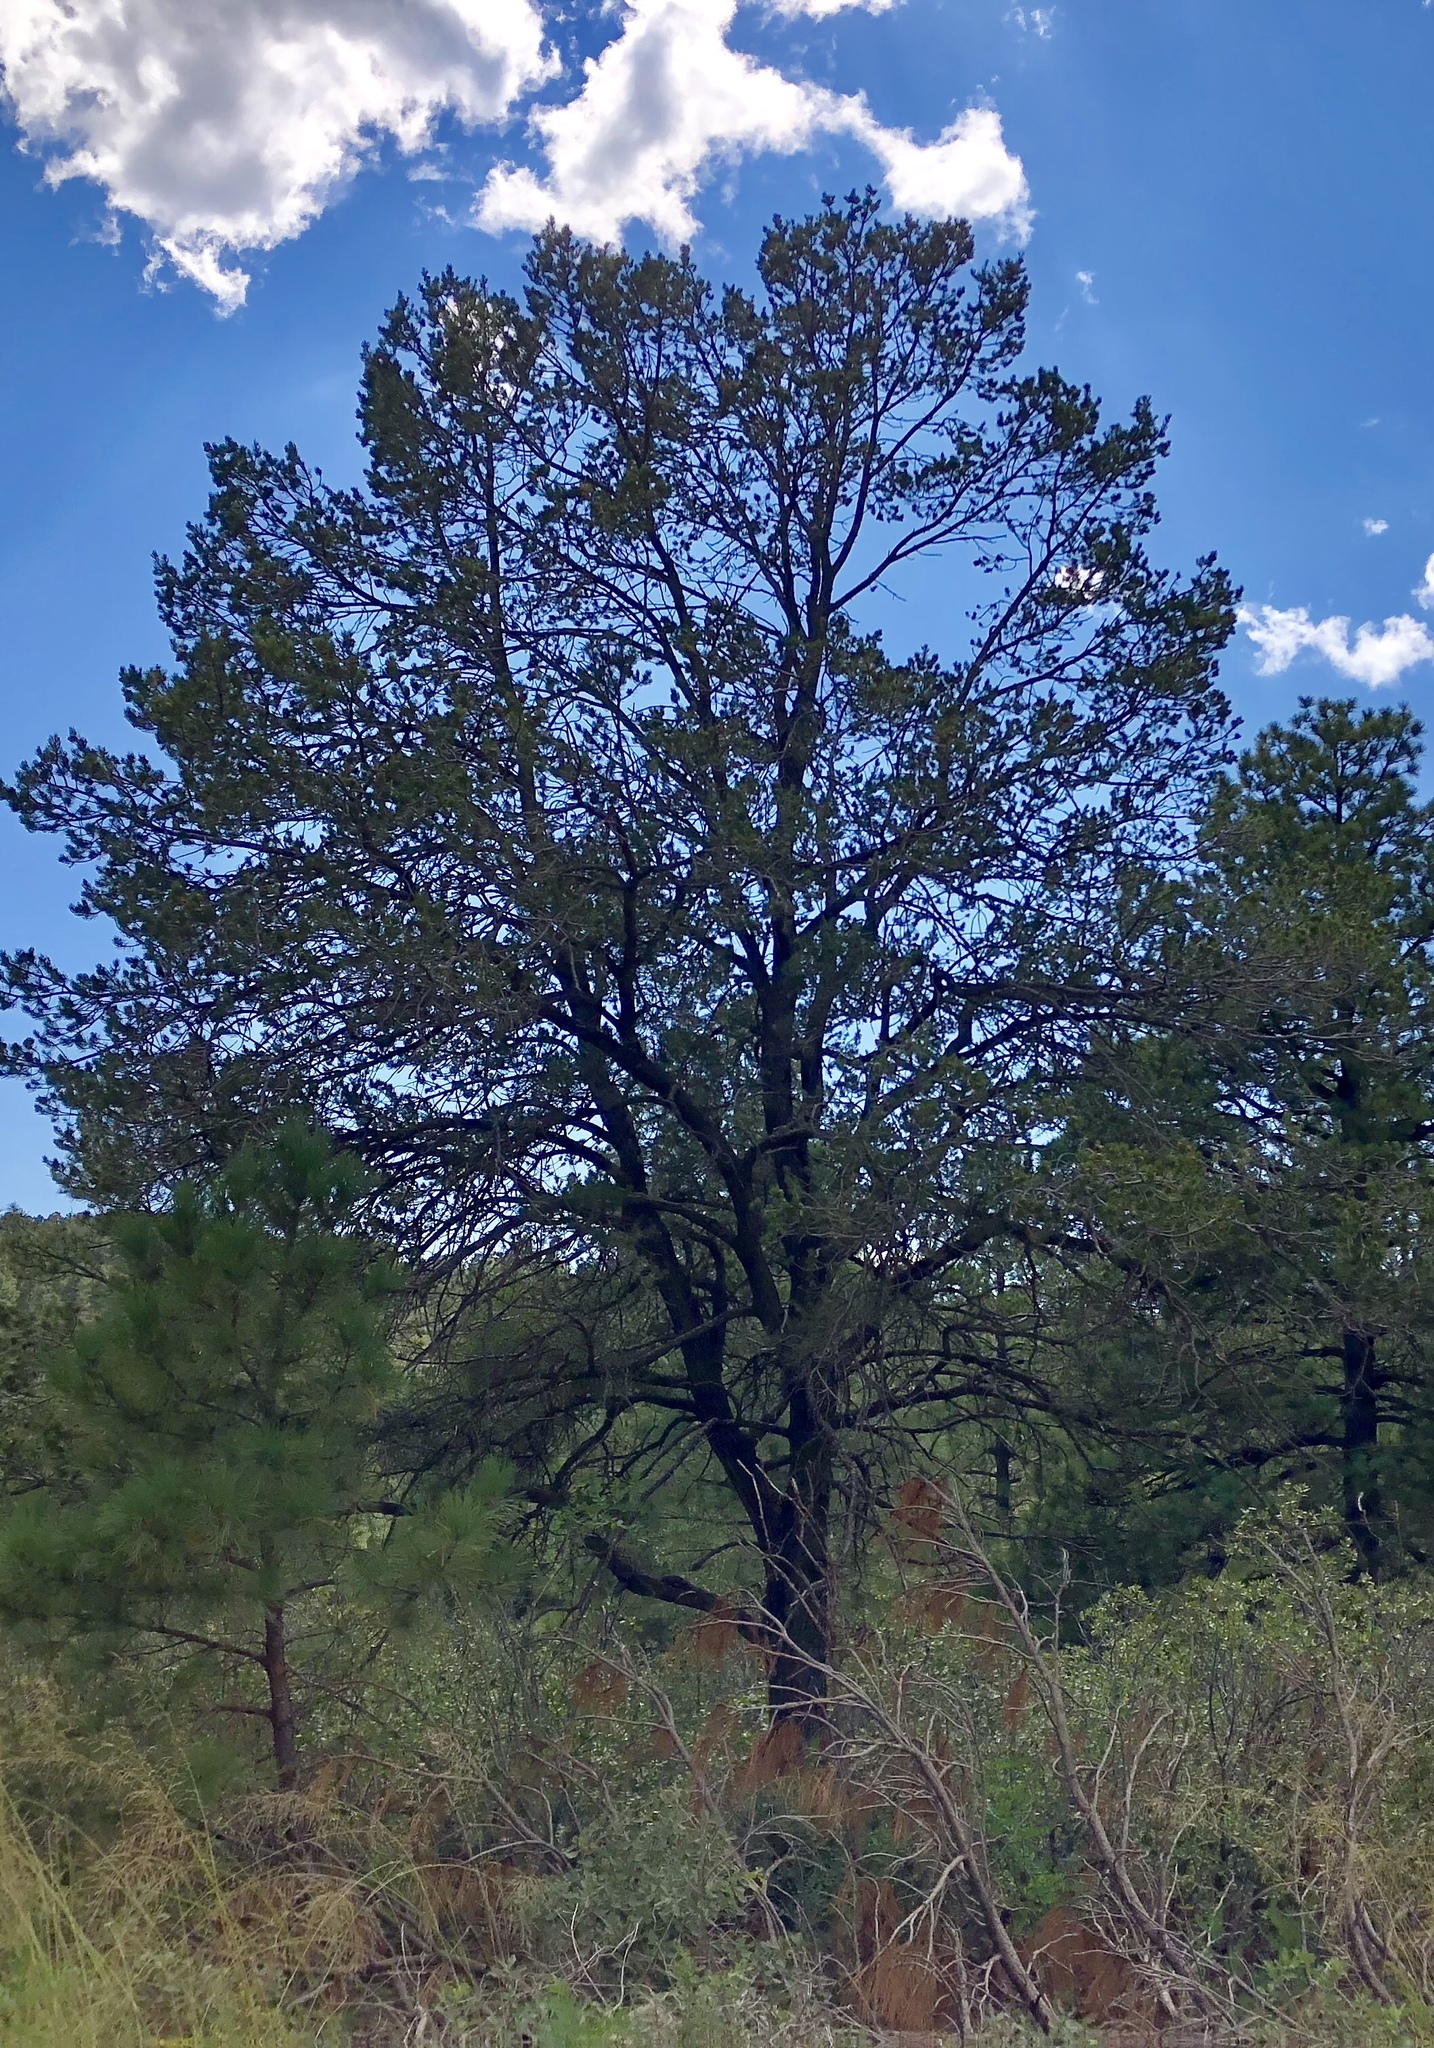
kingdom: Plantae
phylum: Tracheophyta
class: Pinopsida
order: Pinales
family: Pinaceae
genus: Pinus
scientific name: Pinus edulis
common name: Colorado pinyon
